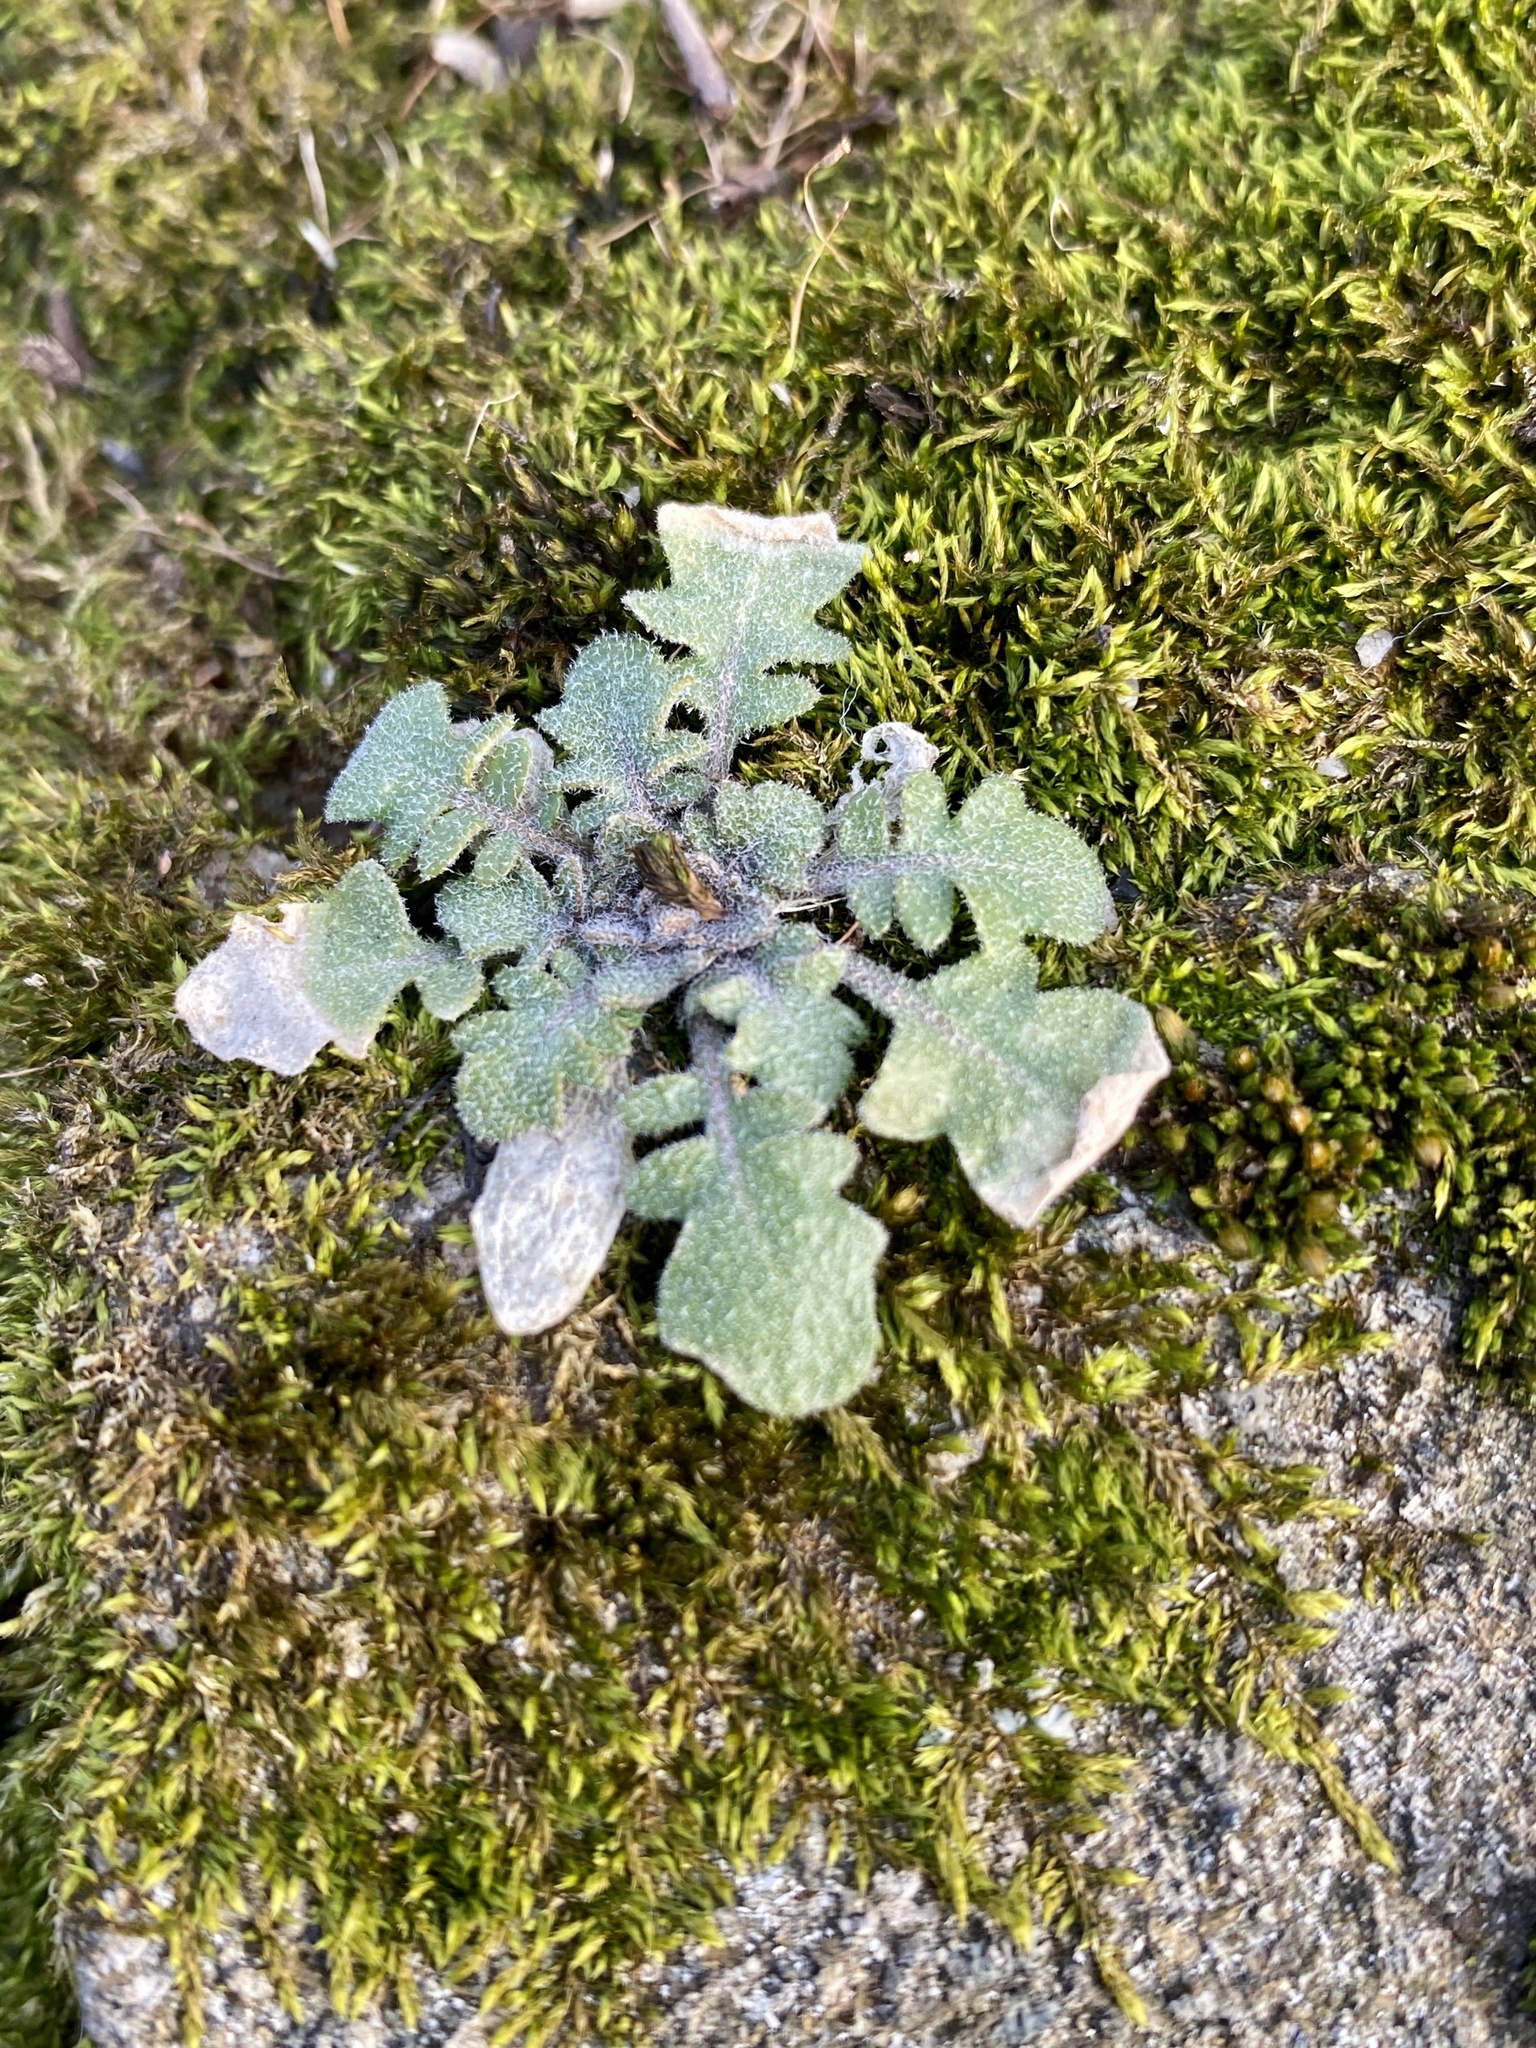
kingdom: Plantae
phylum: Tracheophyta
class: Magnoliopsida
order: Brassicales
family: Brassicaceae
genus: Arabidopsis
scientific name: Arabidopsis lyrata
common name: Lyrate rockcress
